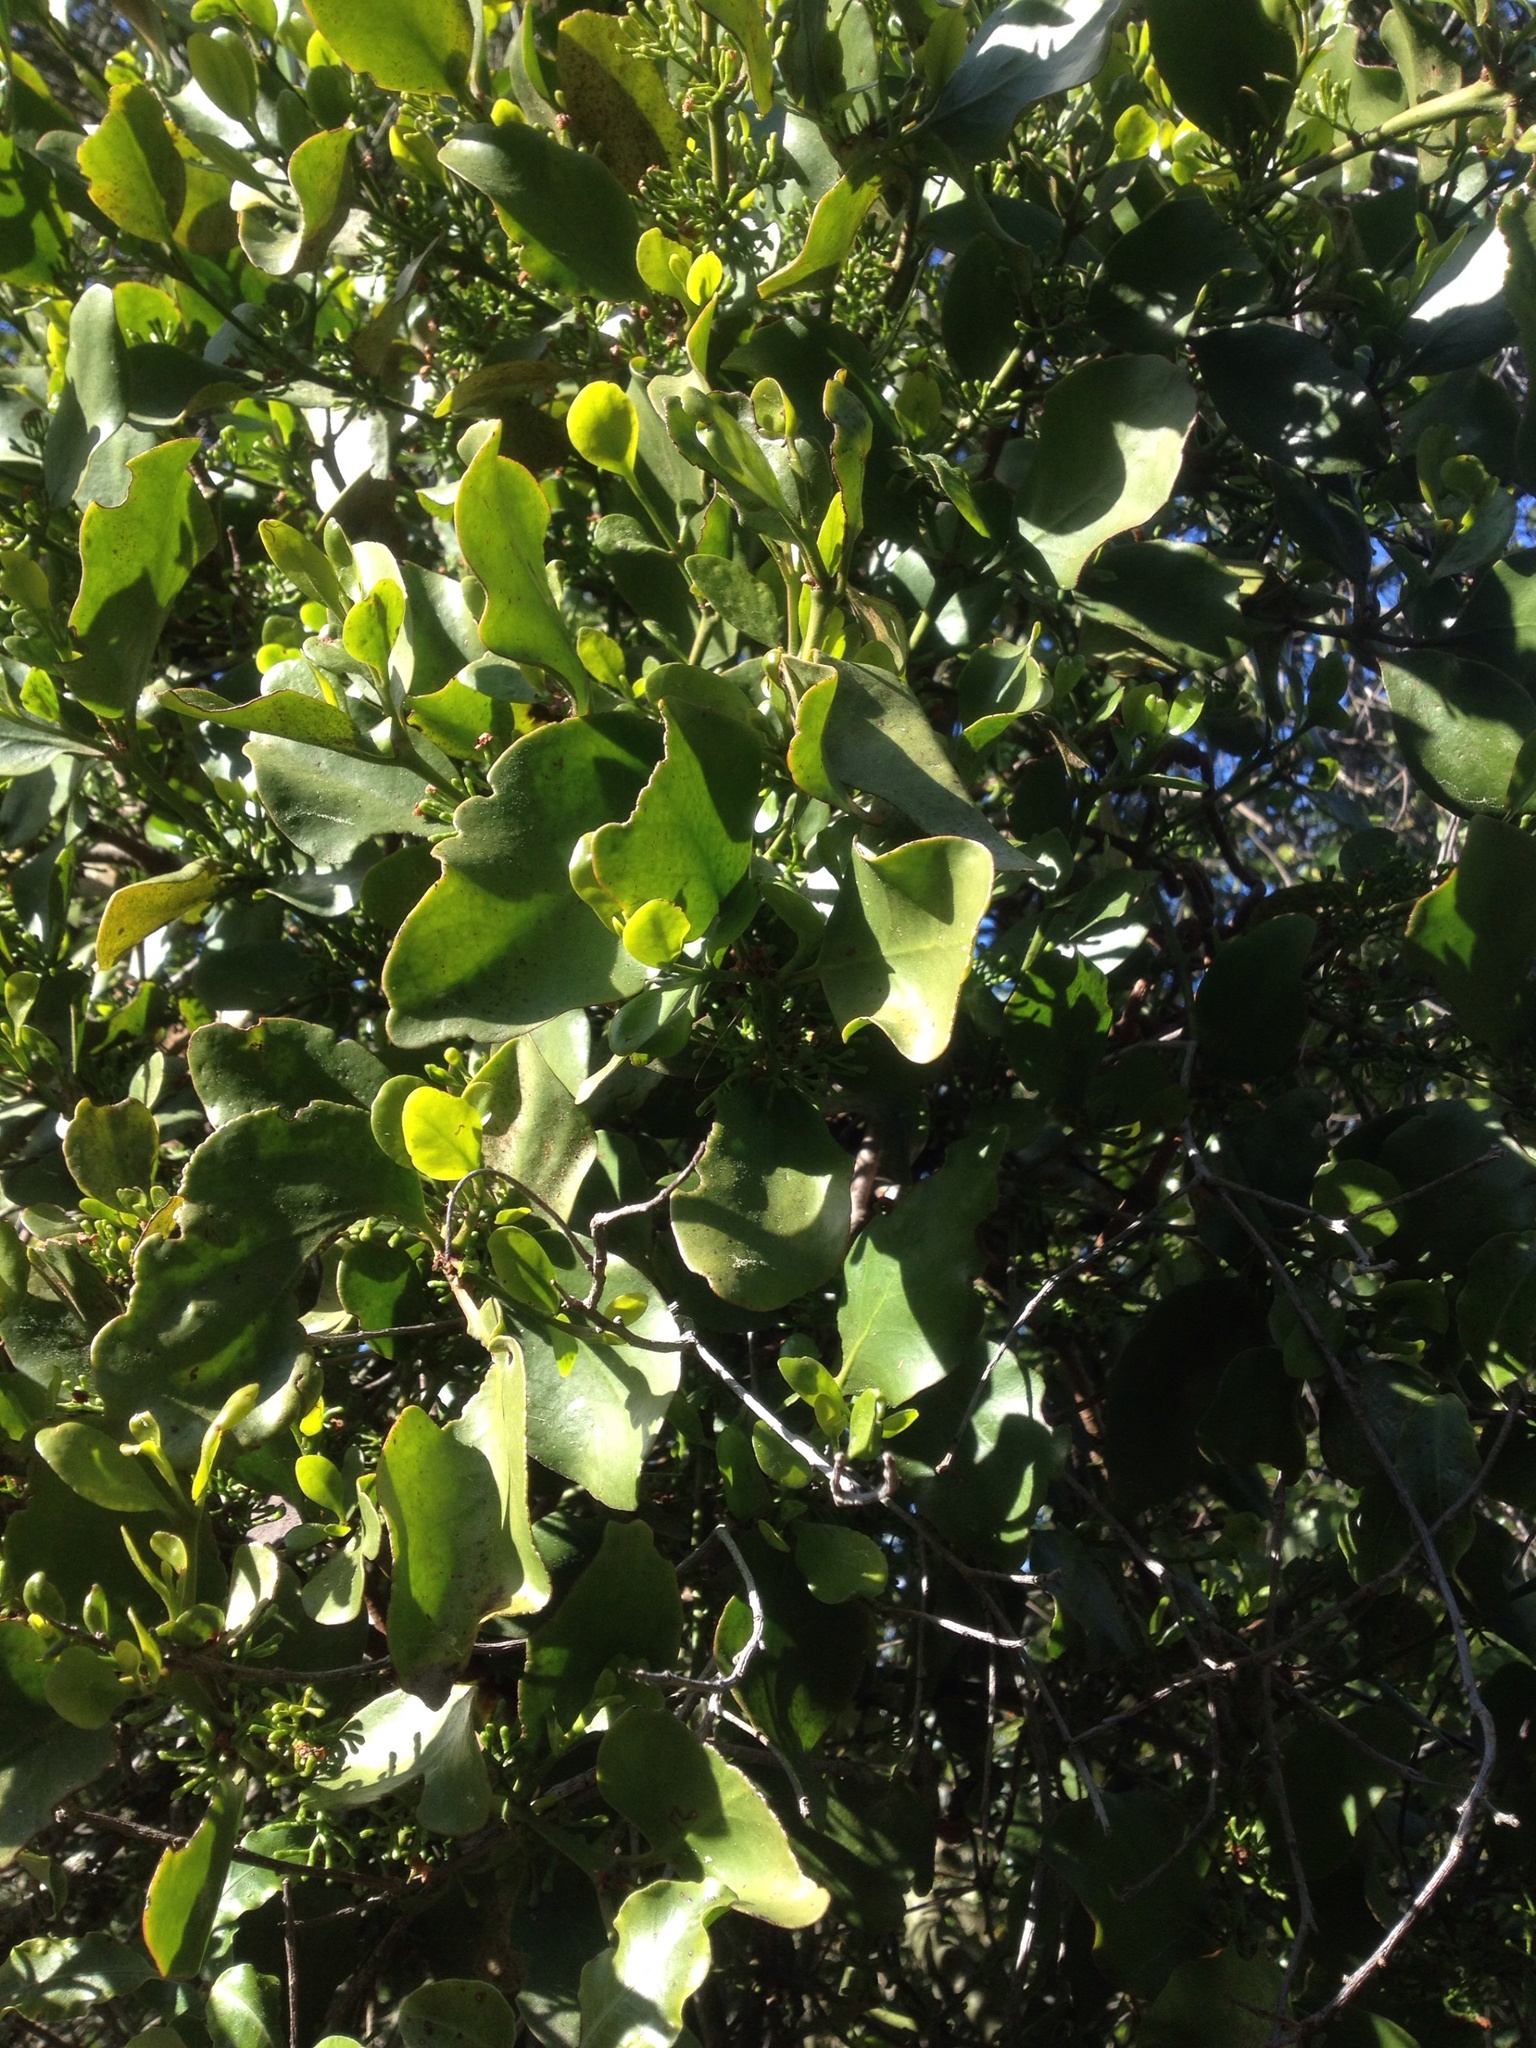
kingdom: Plantae
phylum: Tracheophyta
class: Magnoliopsida
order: Santalales
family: Loranthaceae
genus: Ileostylus
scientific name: Ileostylus micranthus
